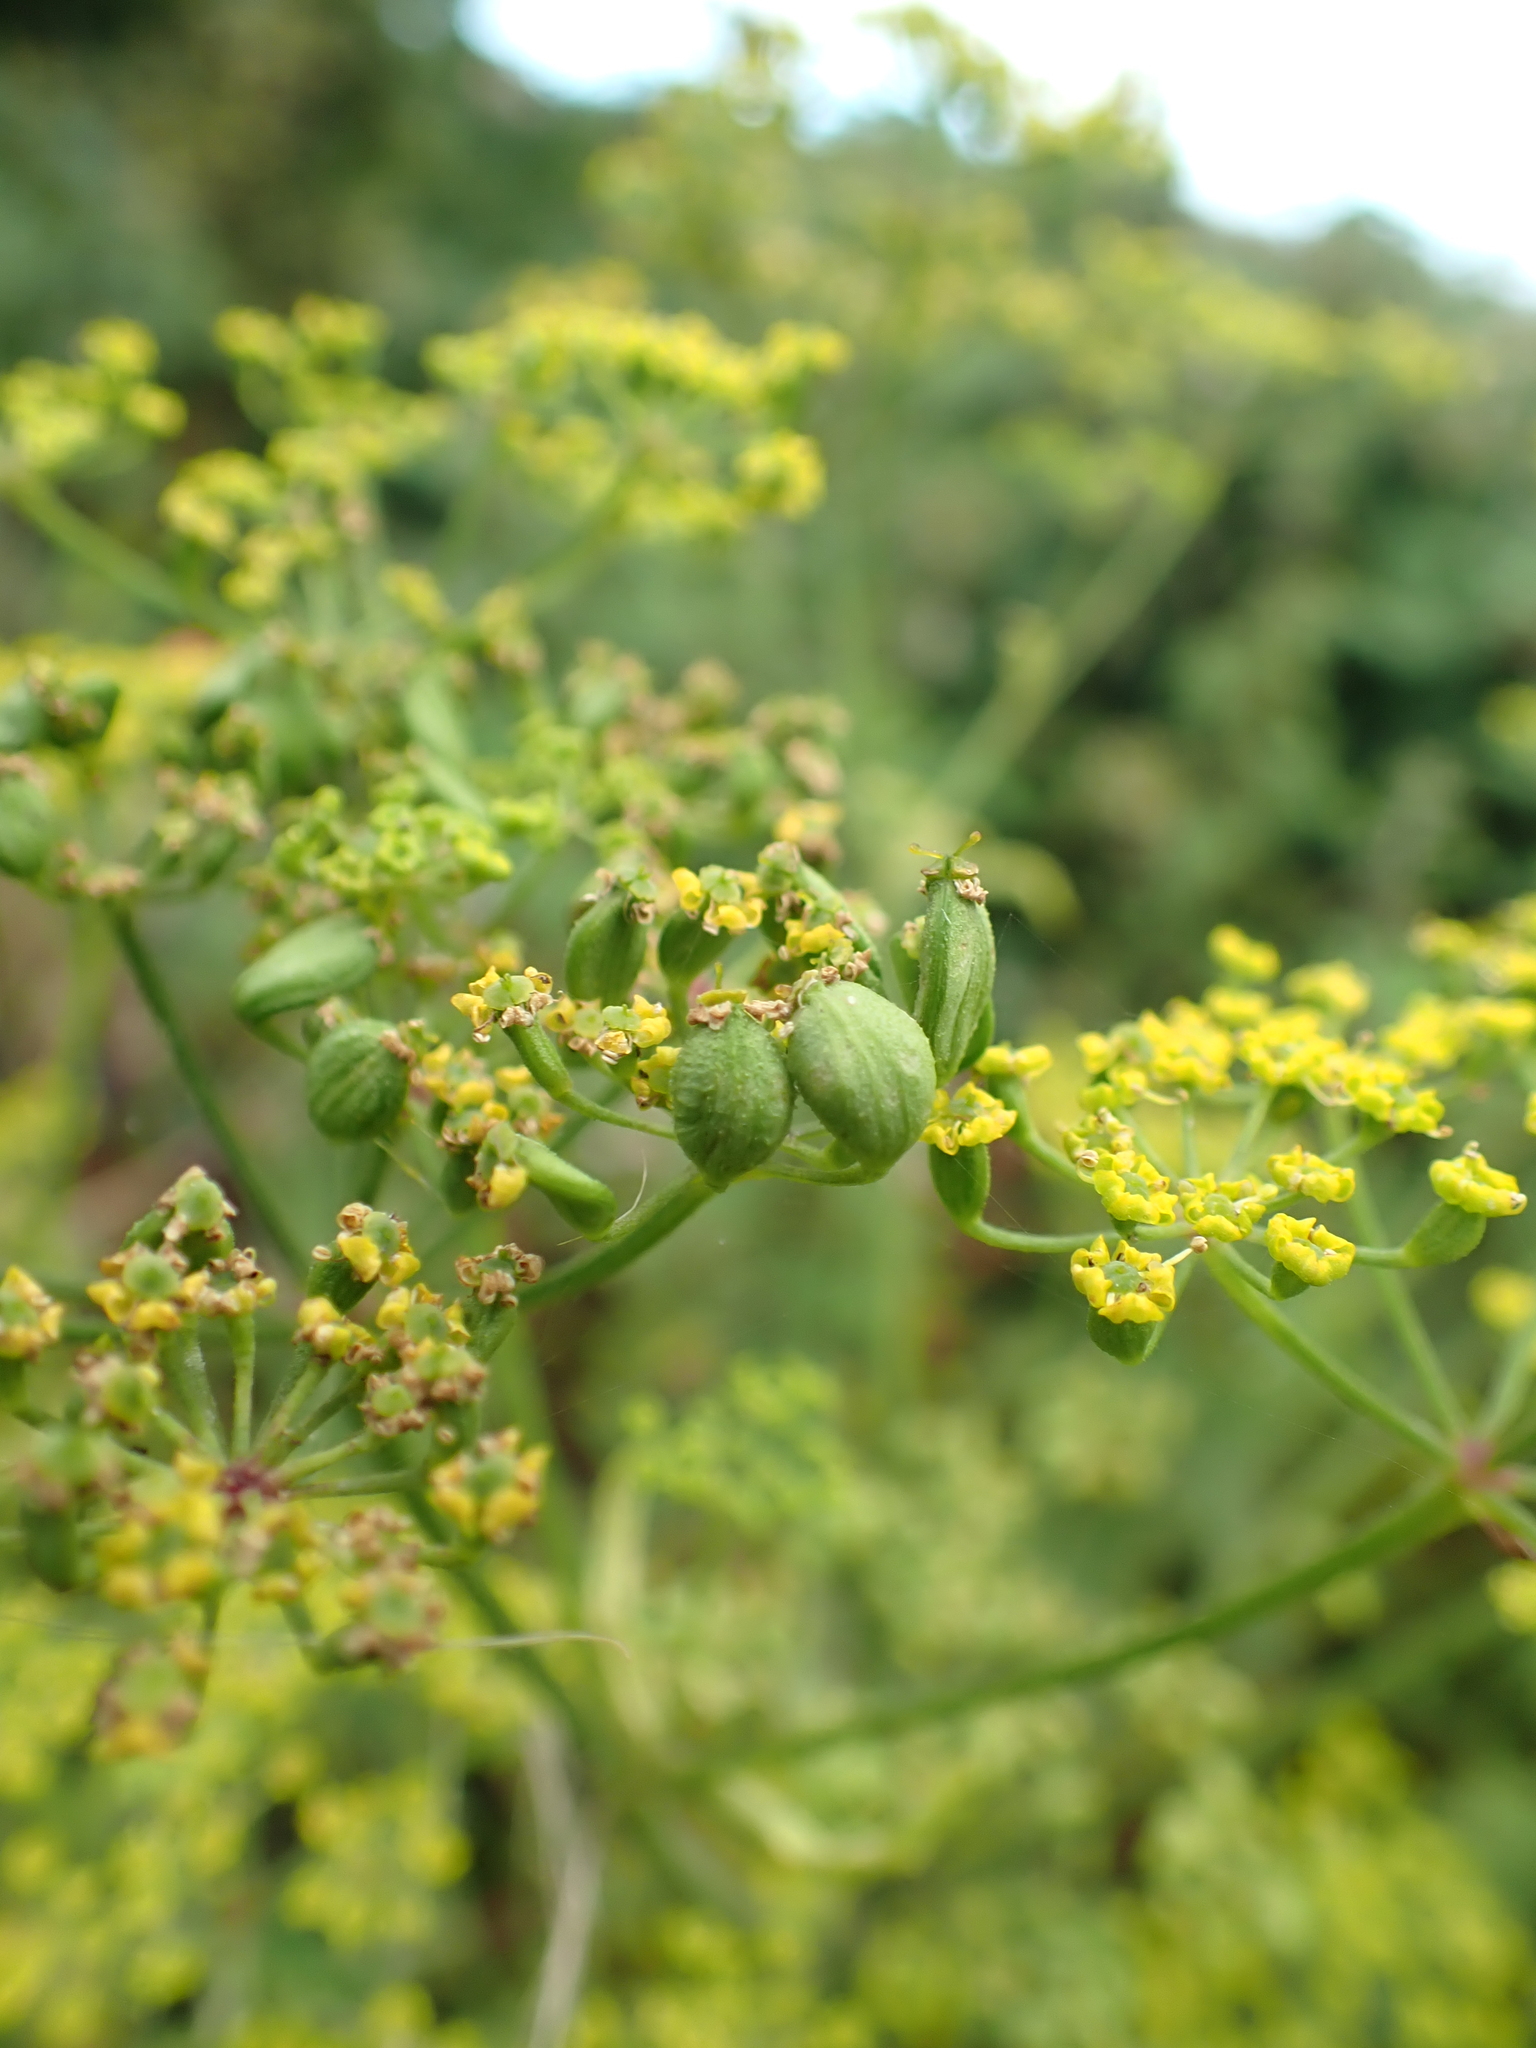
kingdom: Plantae
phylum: Tracheophyta
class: Magnoliopsida
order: Apiales
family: Apiaceae
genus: Pastinaca
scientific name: Pastinaca sativa
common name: Wild parsnip
